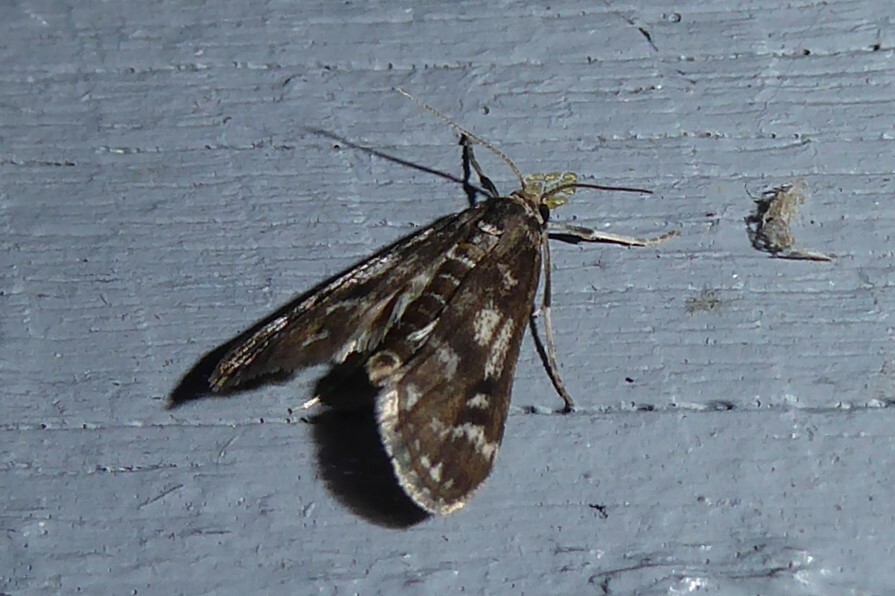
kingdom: Animalia
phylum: Arthropoda
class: Insecta
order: Lepidoptera
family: Crambidae
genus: Hygraula
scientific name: Hygraula nitens
